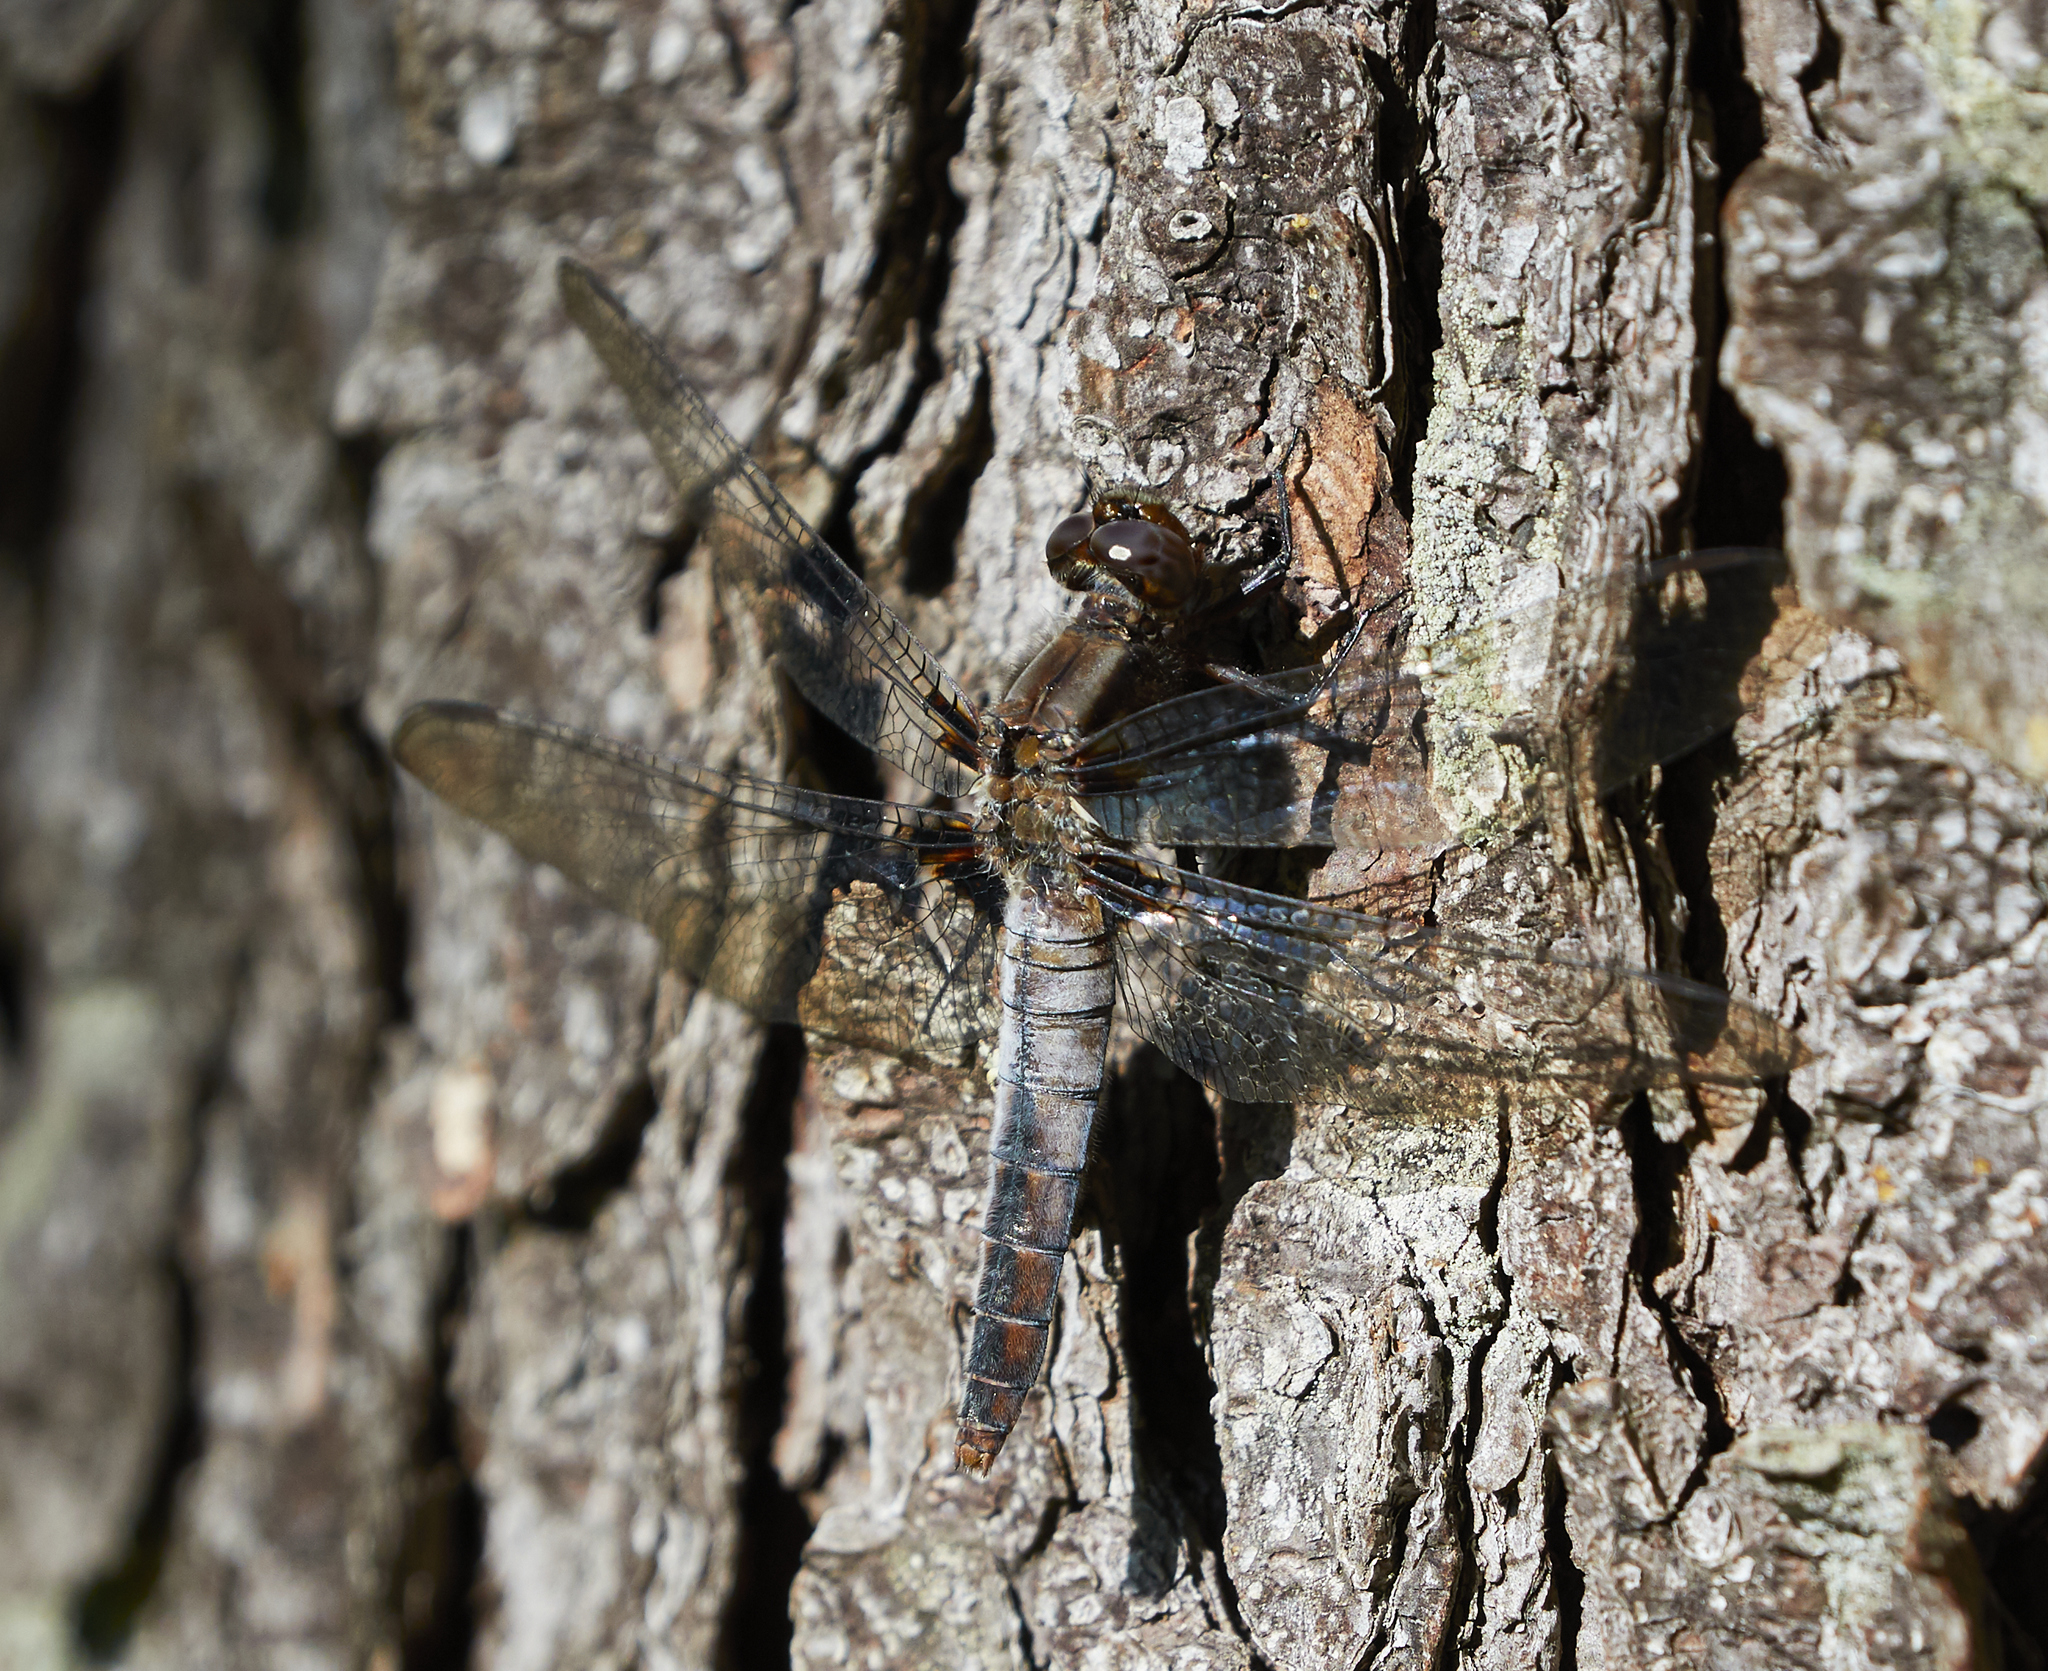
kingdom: Animalia
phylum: Arthropoda
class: Insecta
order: Odonata
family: Libellulidae
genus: Ladona
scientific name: Ladona julia
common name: Chalk-fronted corporal
